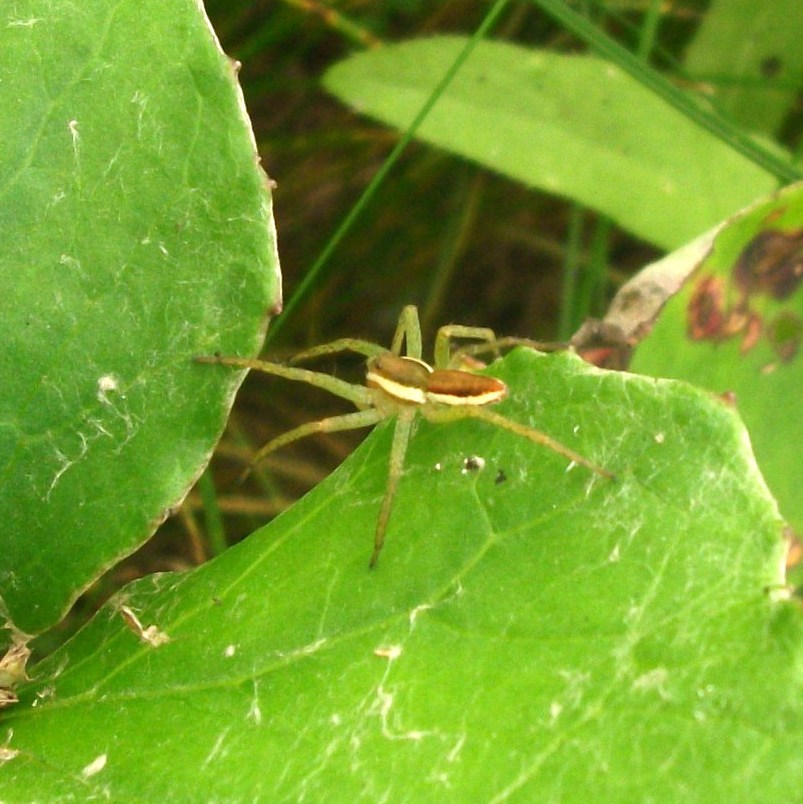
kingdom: Animalia
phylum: Arthropoda
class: Arachnida
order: Araneae
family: Pisauridae
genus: Dolomedes
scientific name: Dolomedes fimbriatus
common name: Raft spider
